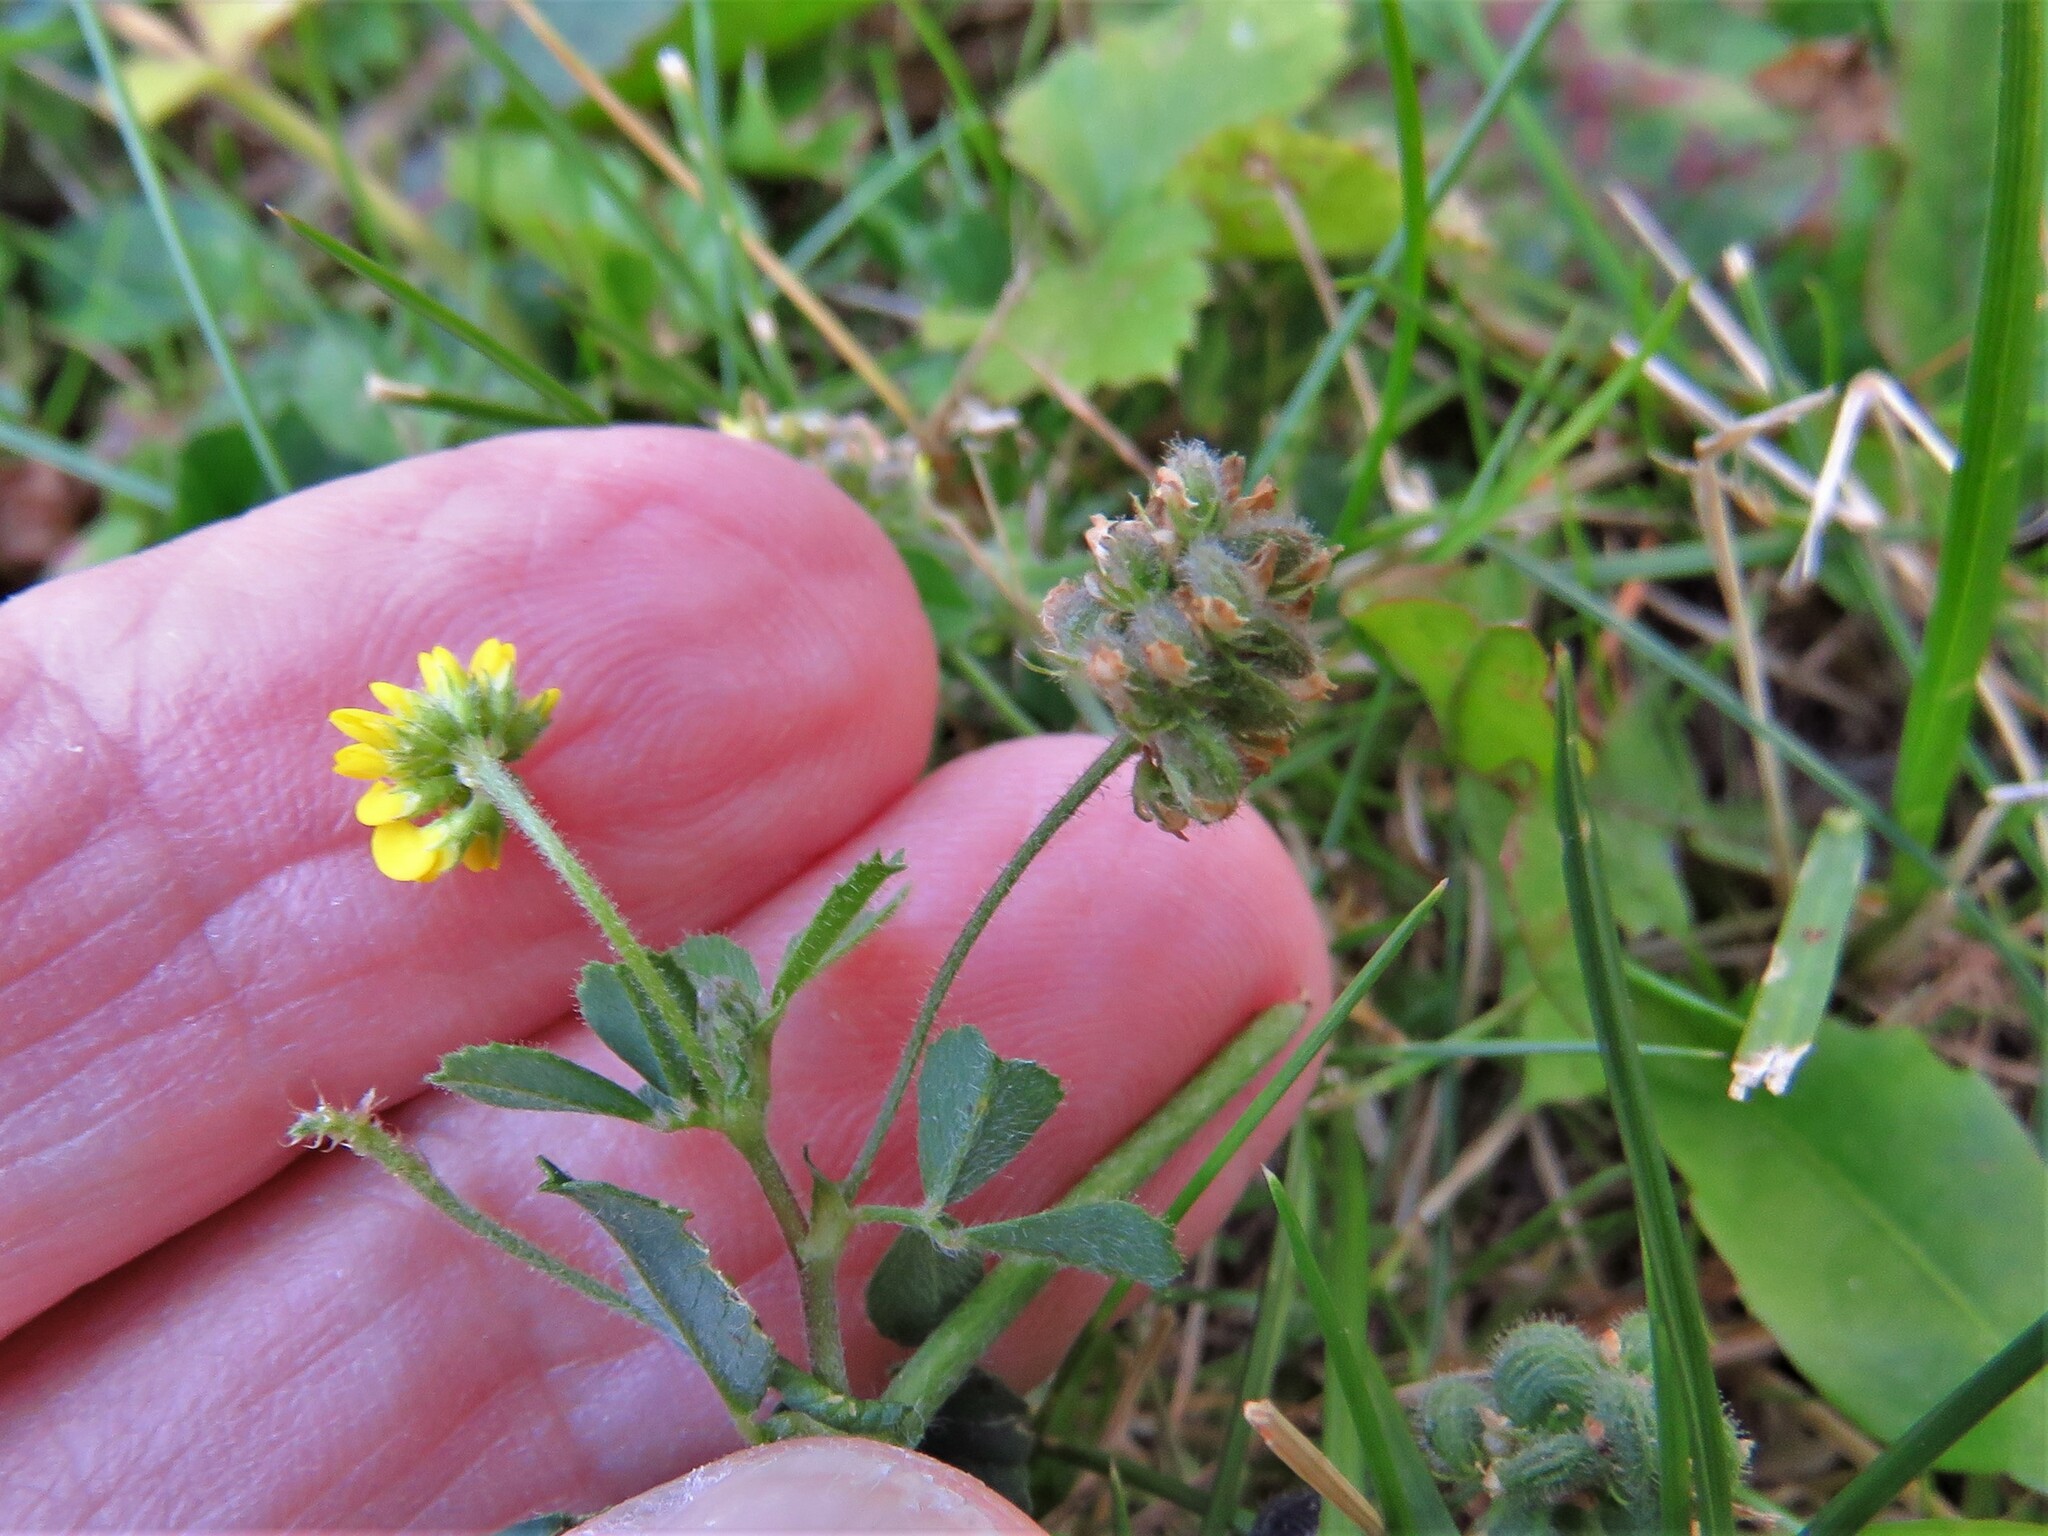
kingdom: Plantae
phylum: Tracheophyta
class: Magnoliopsida
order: Fabales
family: Fabaceae
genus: Medicago
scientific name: Medicago lupulina
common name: Black medick
